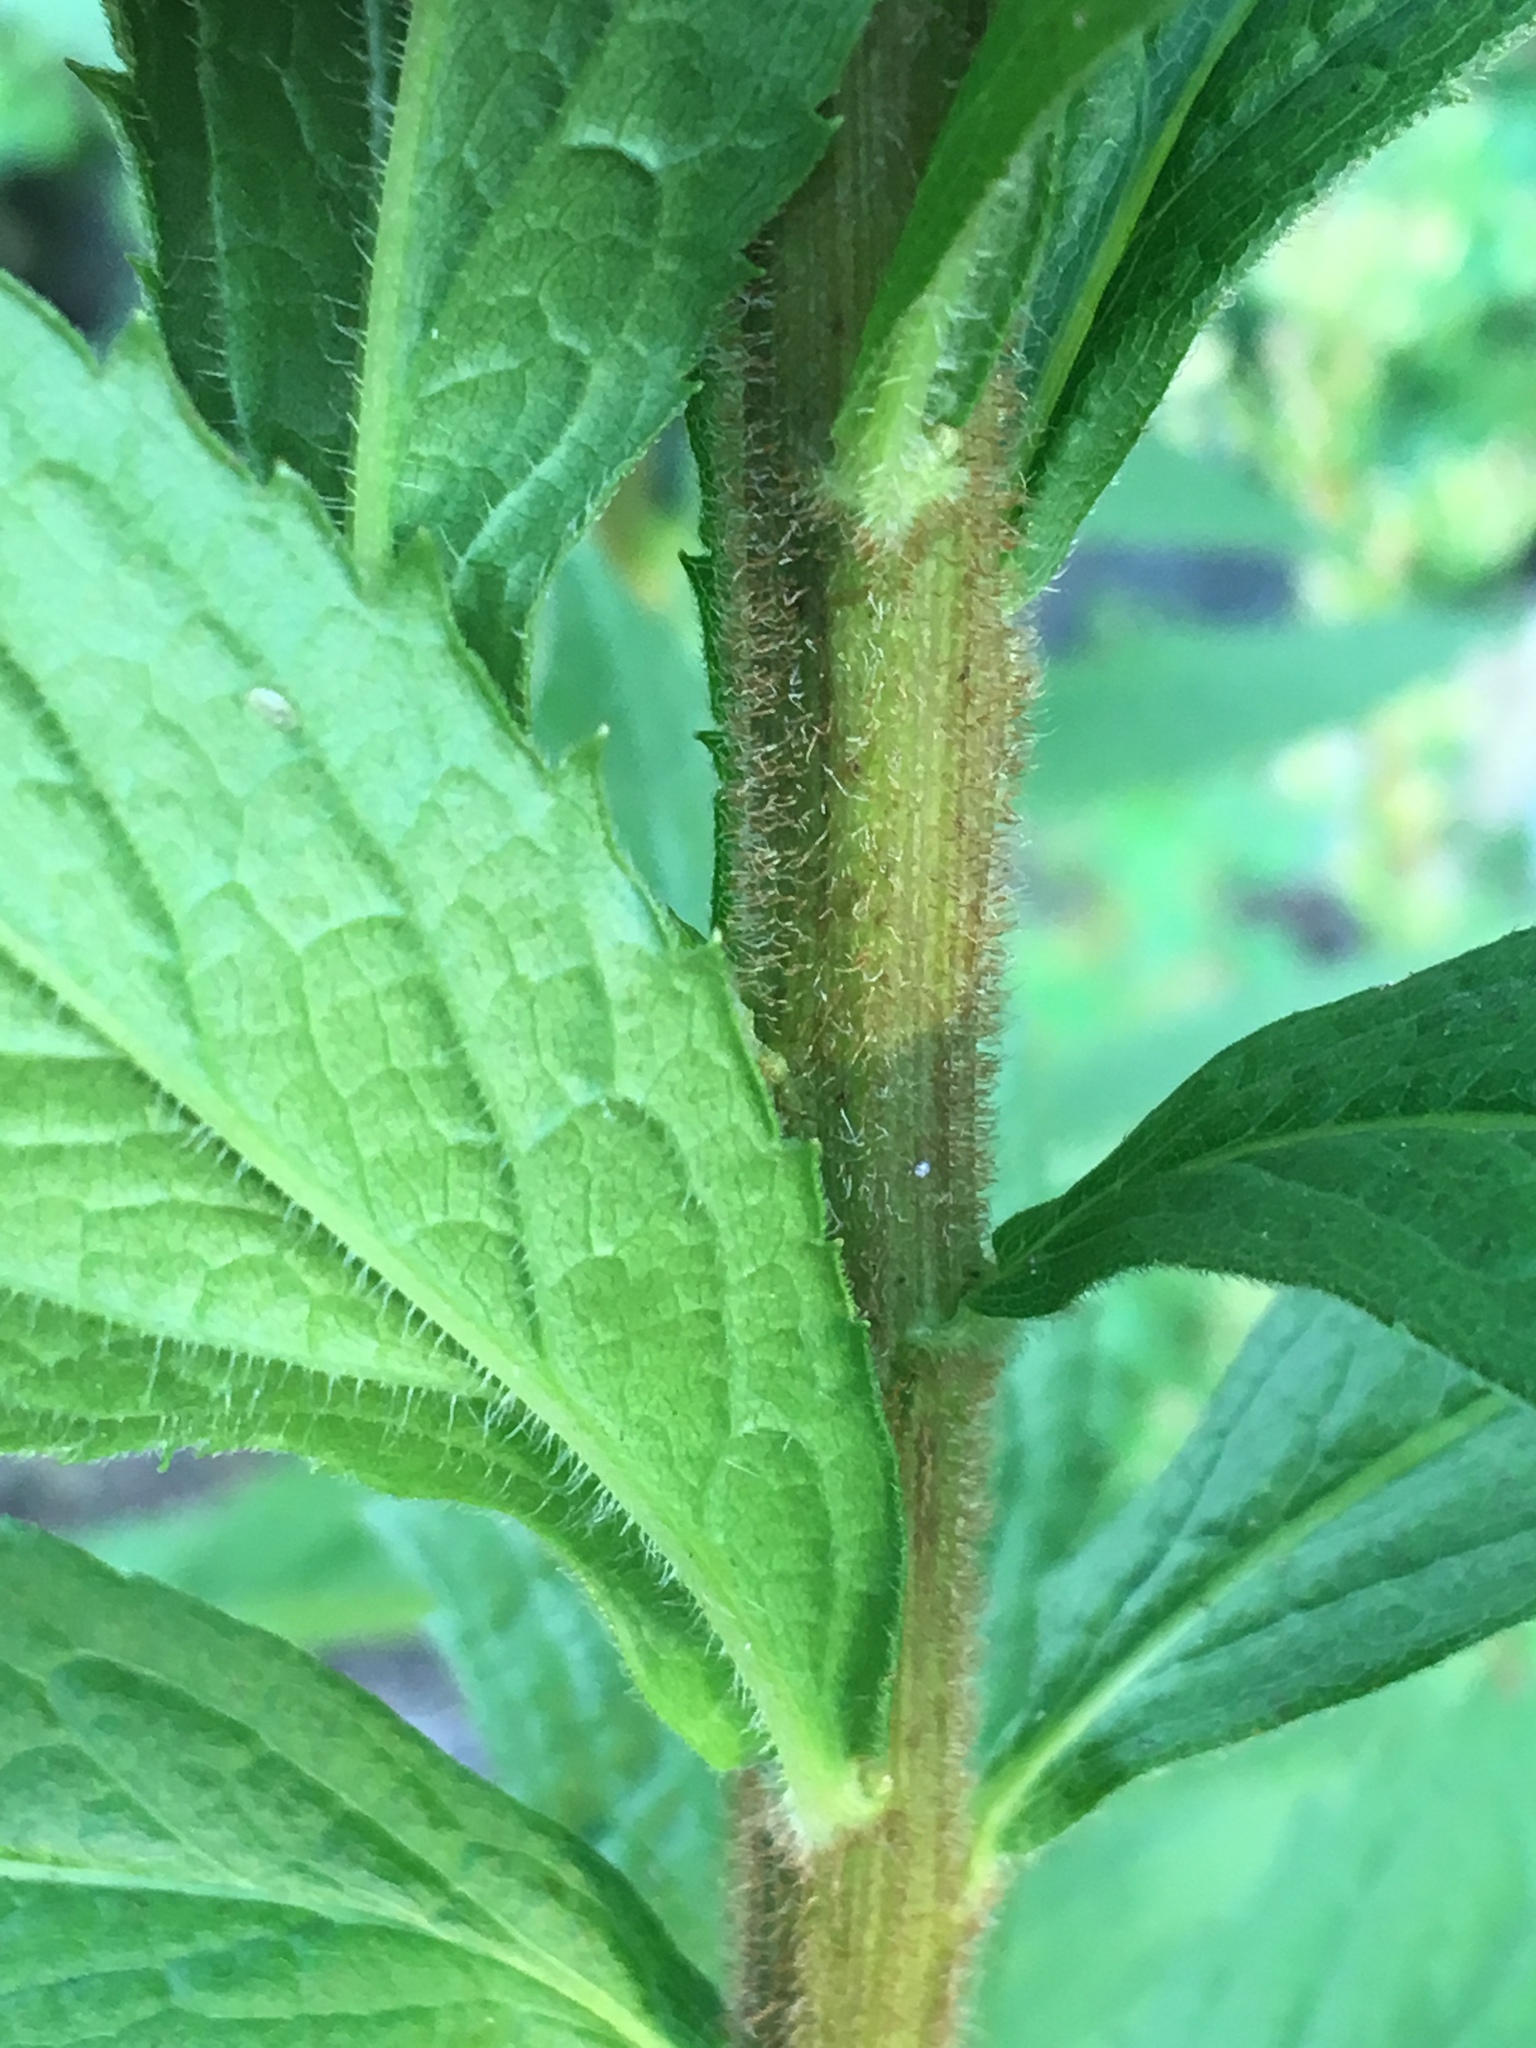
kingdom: Plantae
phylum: Tracheophyta
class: Magnoliopsida
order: Asterales
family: Asteraceae
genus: Solidago
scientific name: Solidago rugosa
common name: Rough-stemmed goldenrod
